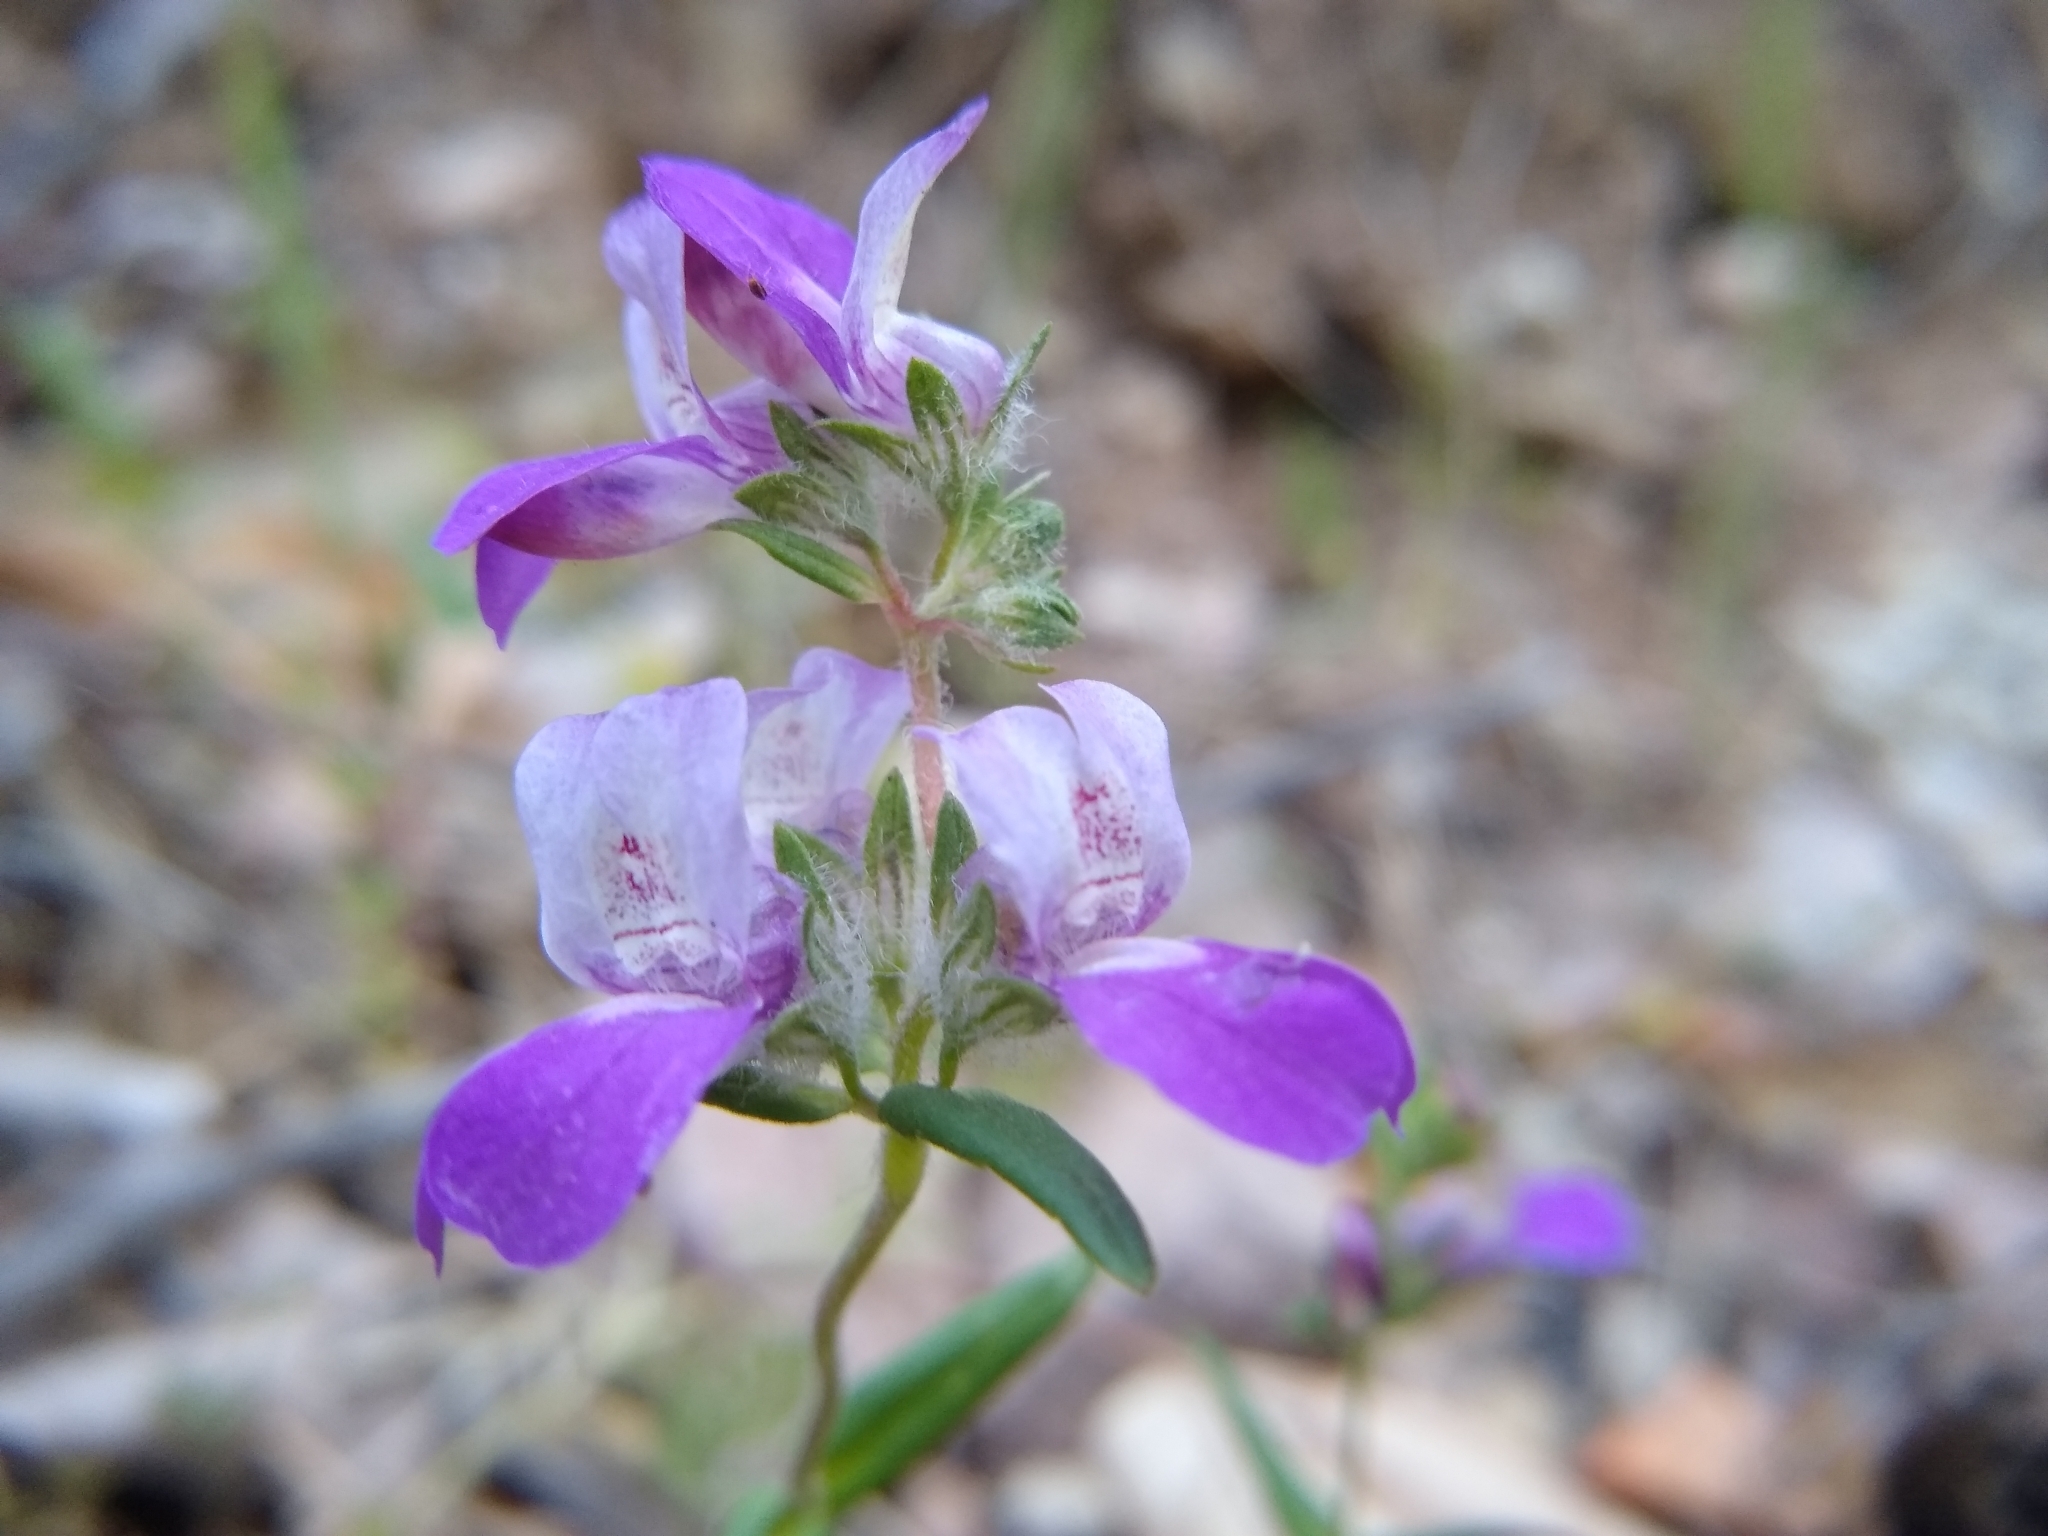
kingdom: Plantae
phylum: Tracheophyta
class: Magnoliopsida
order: Lamiales
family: Plantaginaceae
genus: Collinsia
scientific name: Collinsia heterophylla
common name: Chinese-houses
